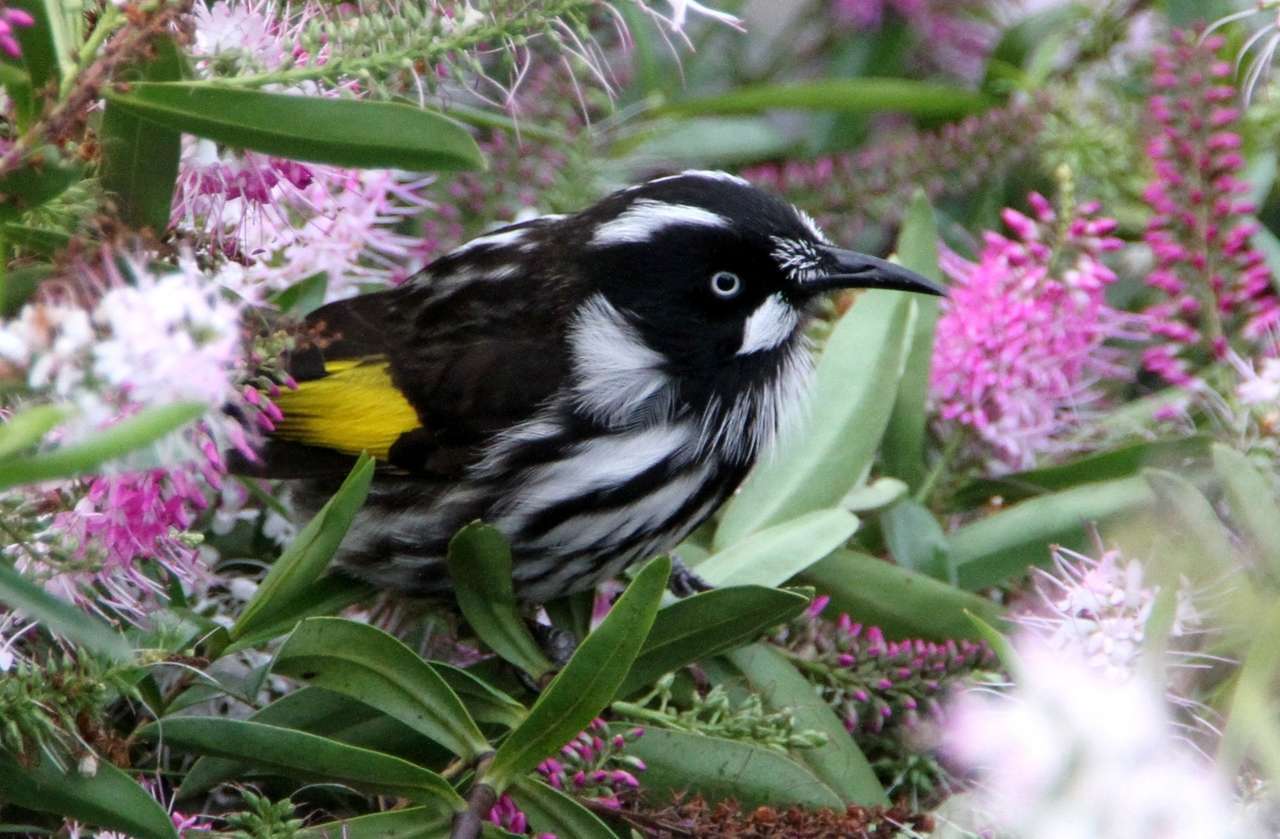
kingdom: Animalia
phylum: Chordata
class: Aves
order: Passeriformes
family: Meliphagidae
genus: Phylidonyris
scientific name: Phylidonyris novaehollandiae
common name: New holland honeyeater
